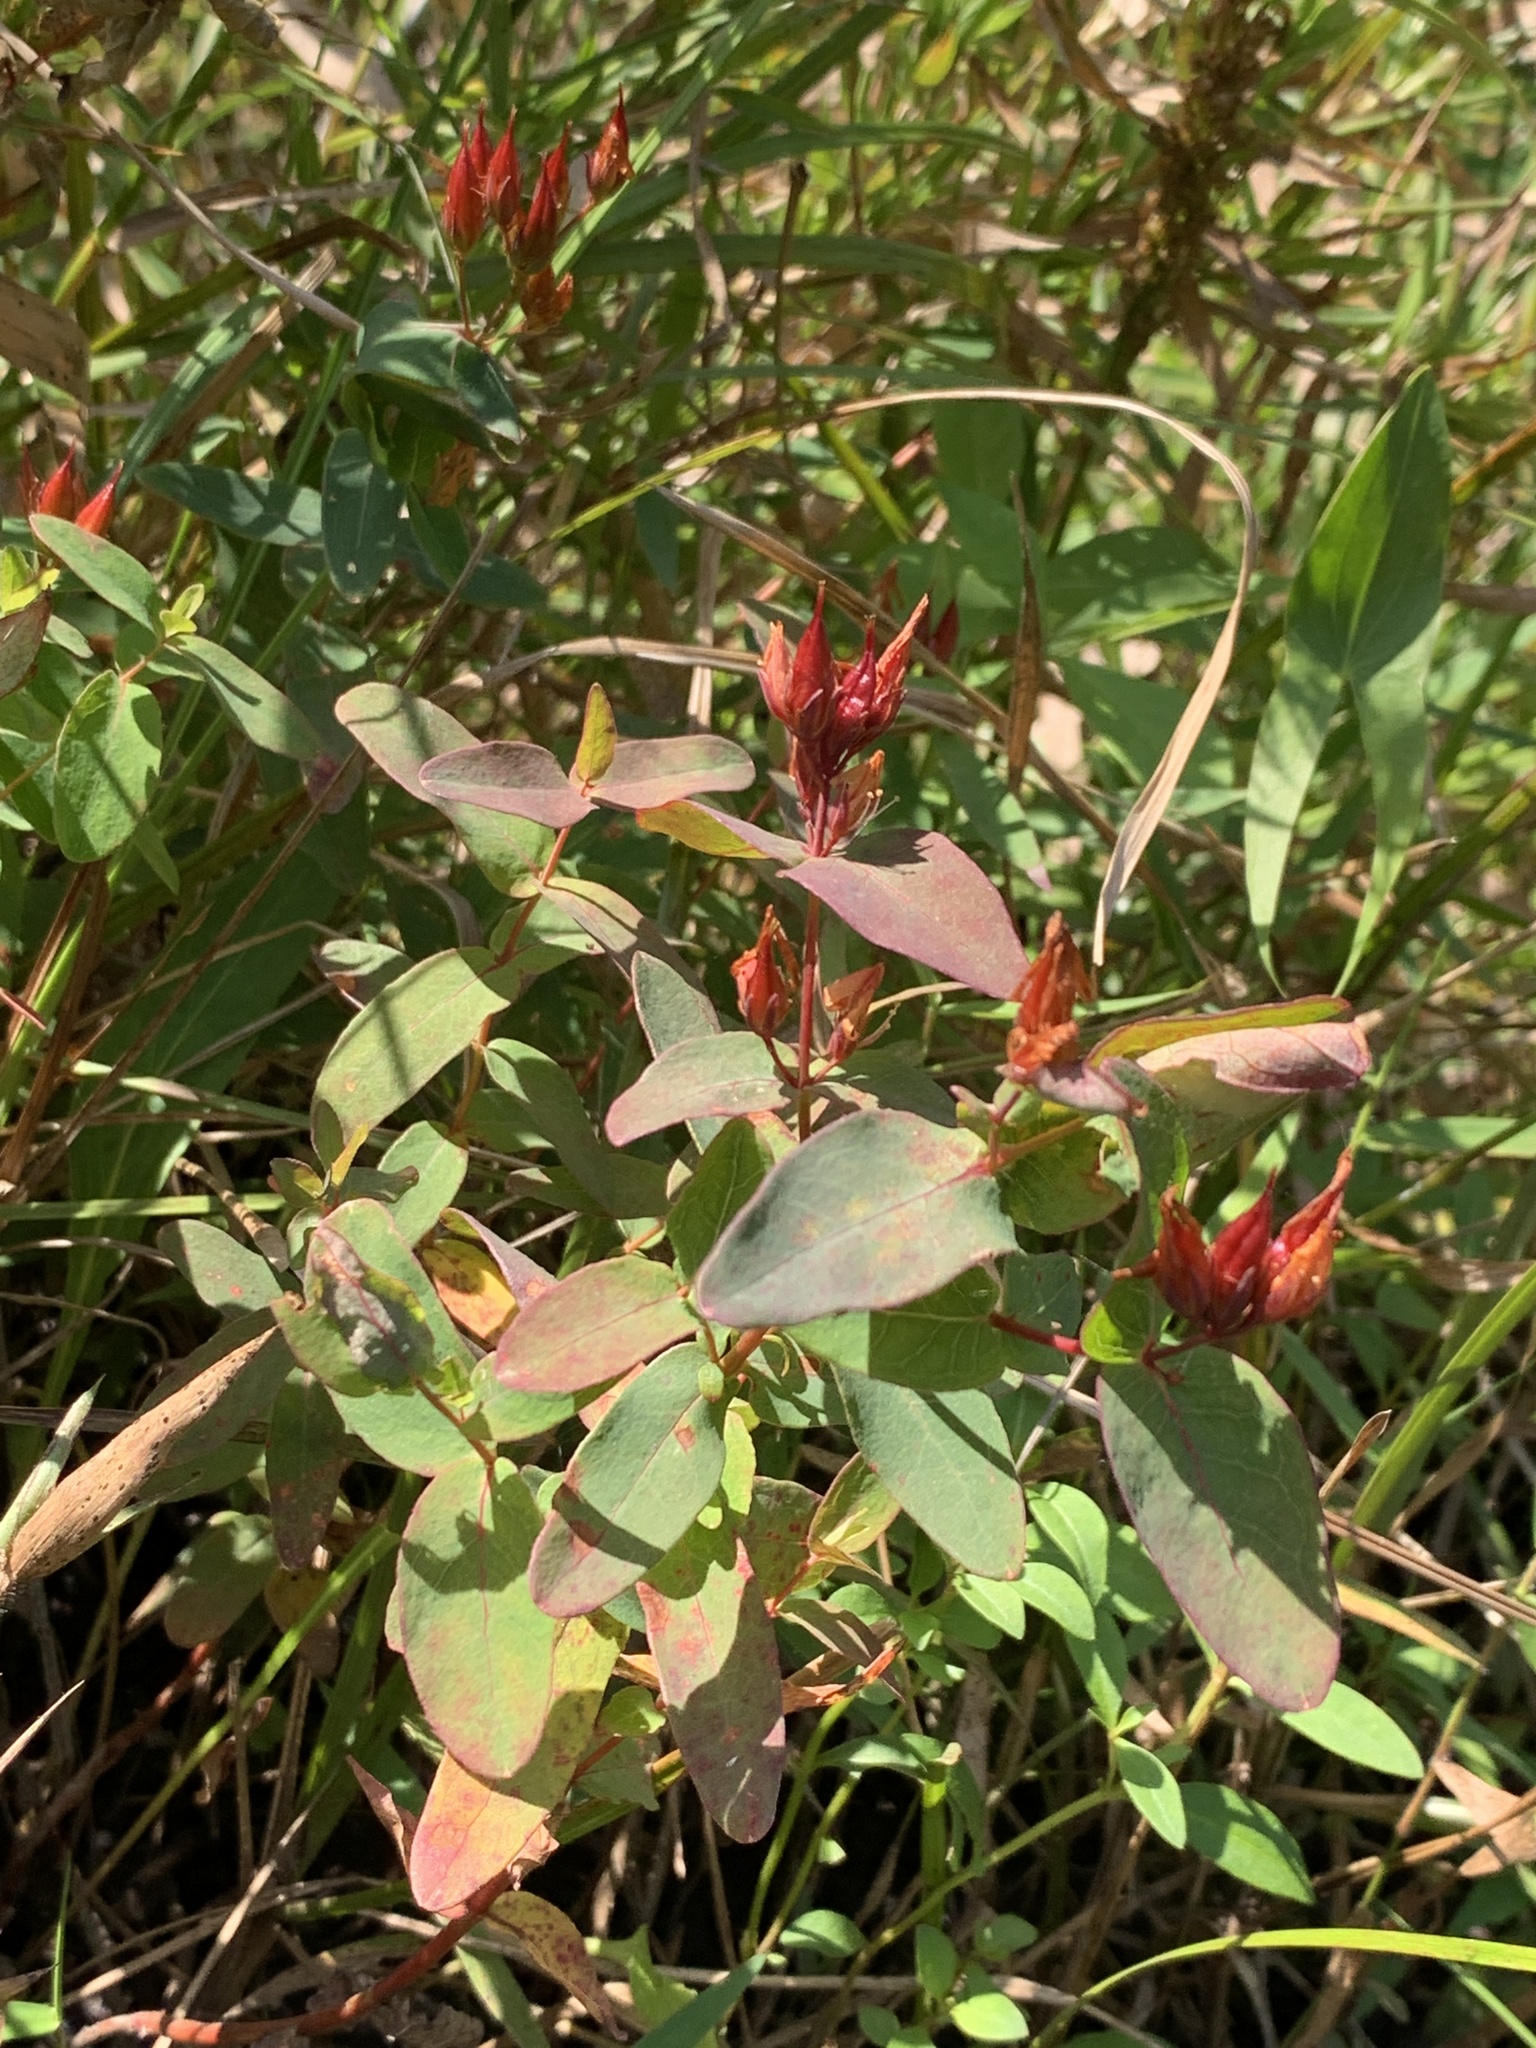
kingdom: Plantae
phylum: Tracheophyta
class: Magnoliopsida
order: Malpighiales
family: Hypericaceae
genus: Triadenum
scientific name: Triadenum virginicum
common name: Marsh st. john's-wort
